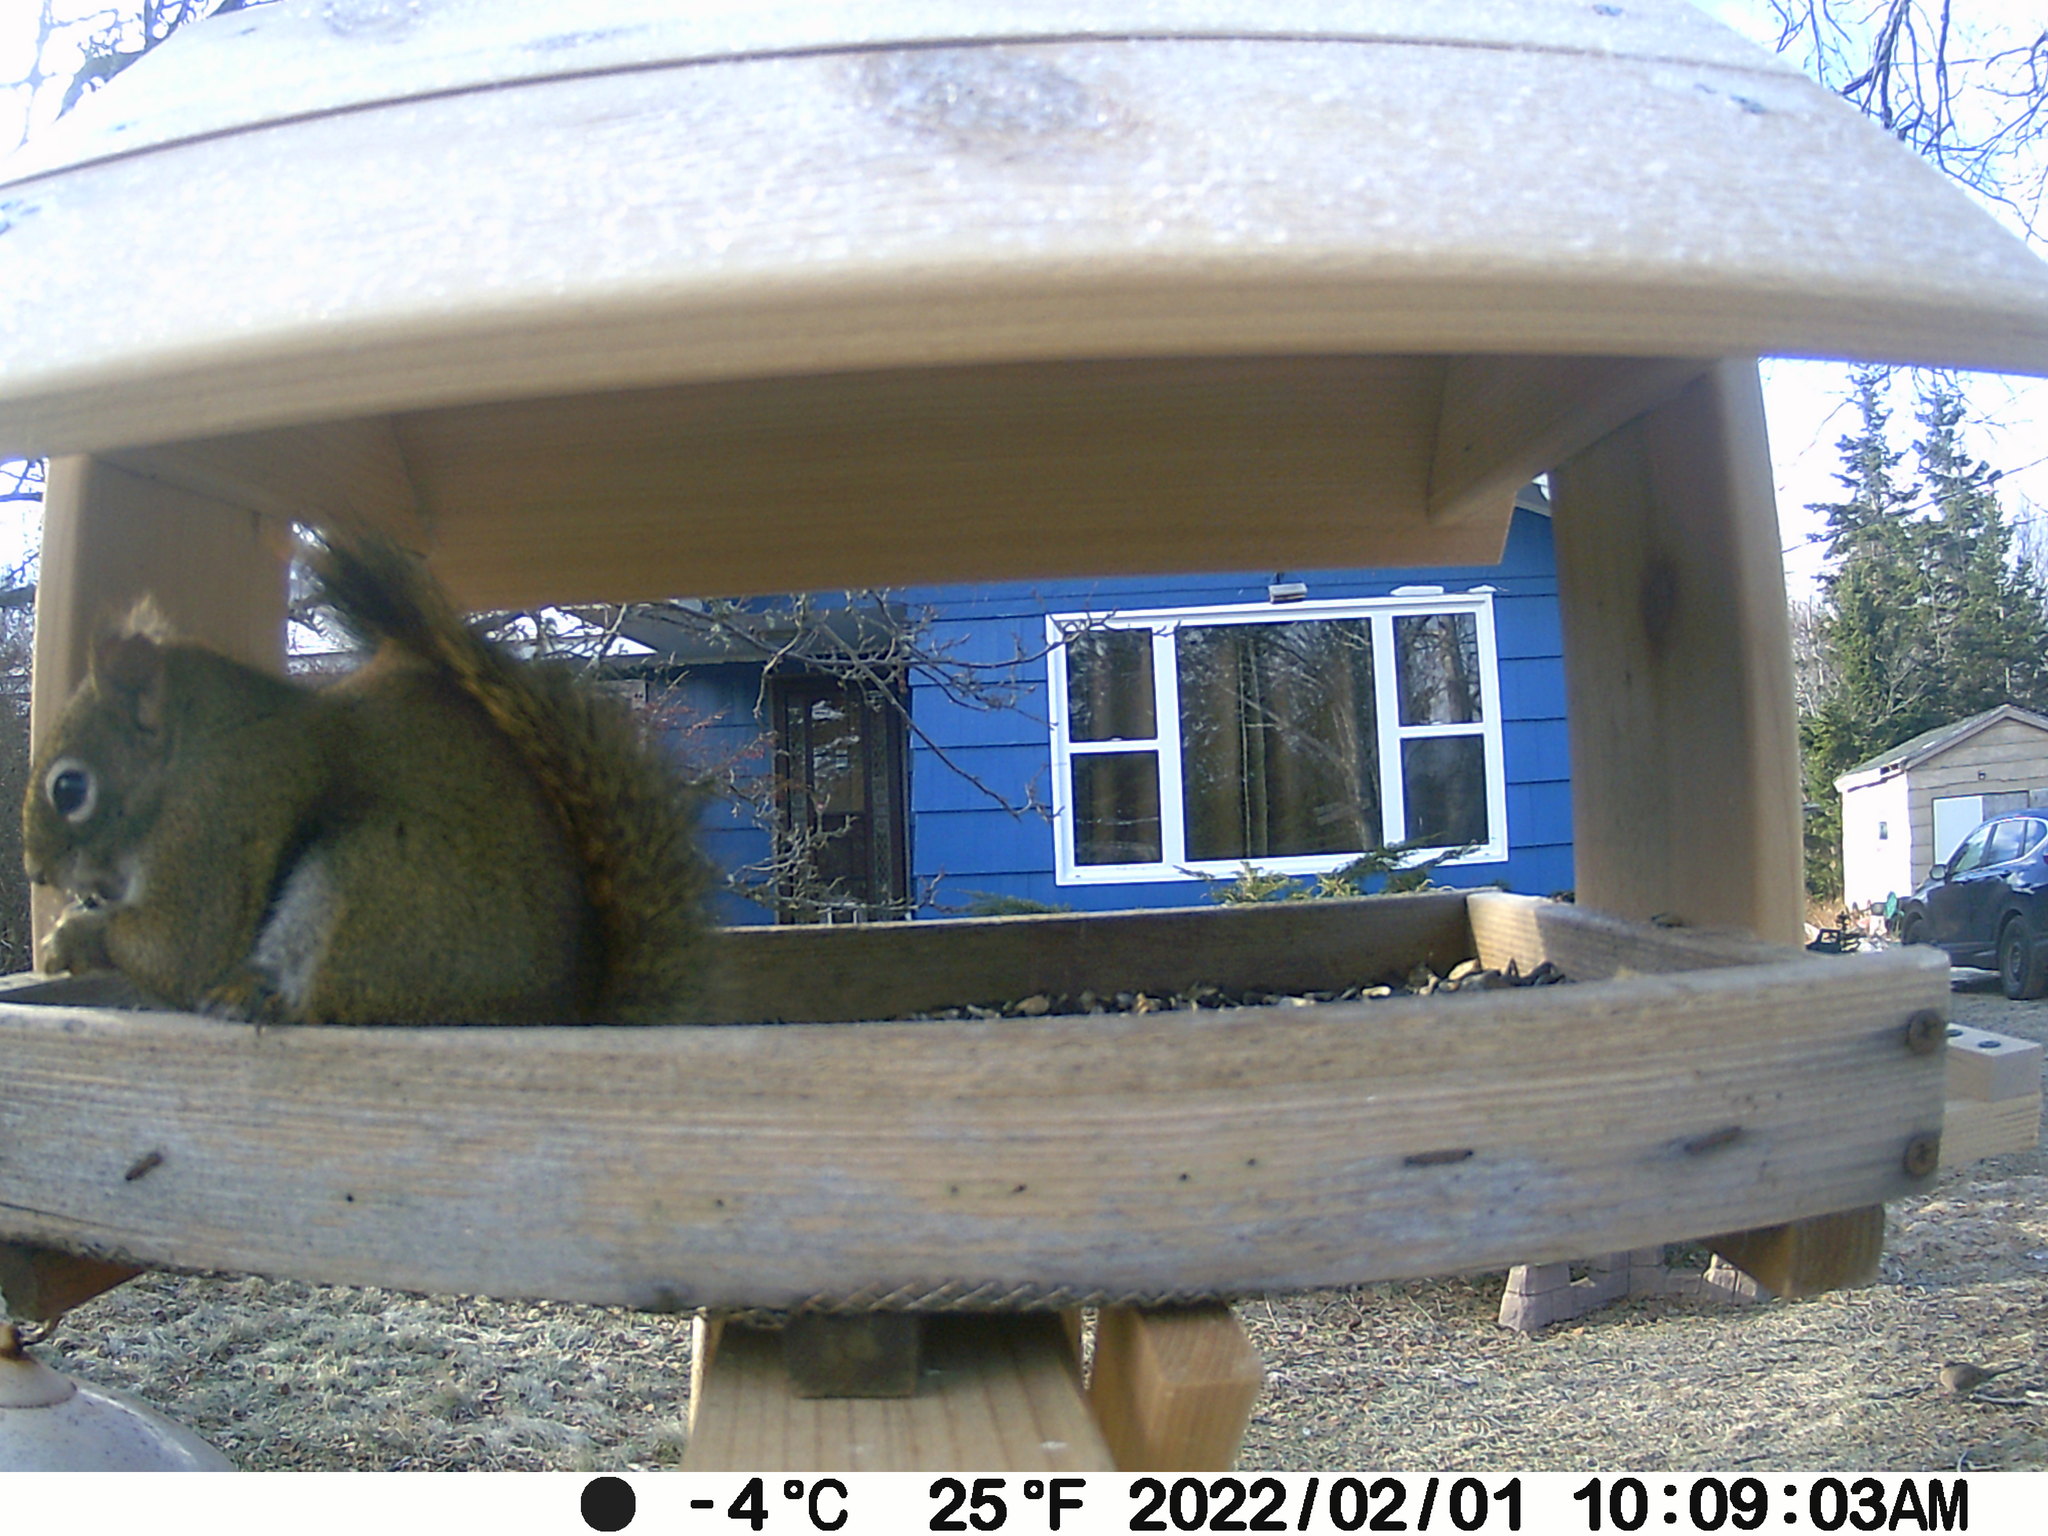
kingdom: Animalia
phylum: Chordata
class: Aves
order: Columbiformes
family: Columbidae
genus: Zenaida
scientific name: Zenaida macroura
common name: Mourning dove
